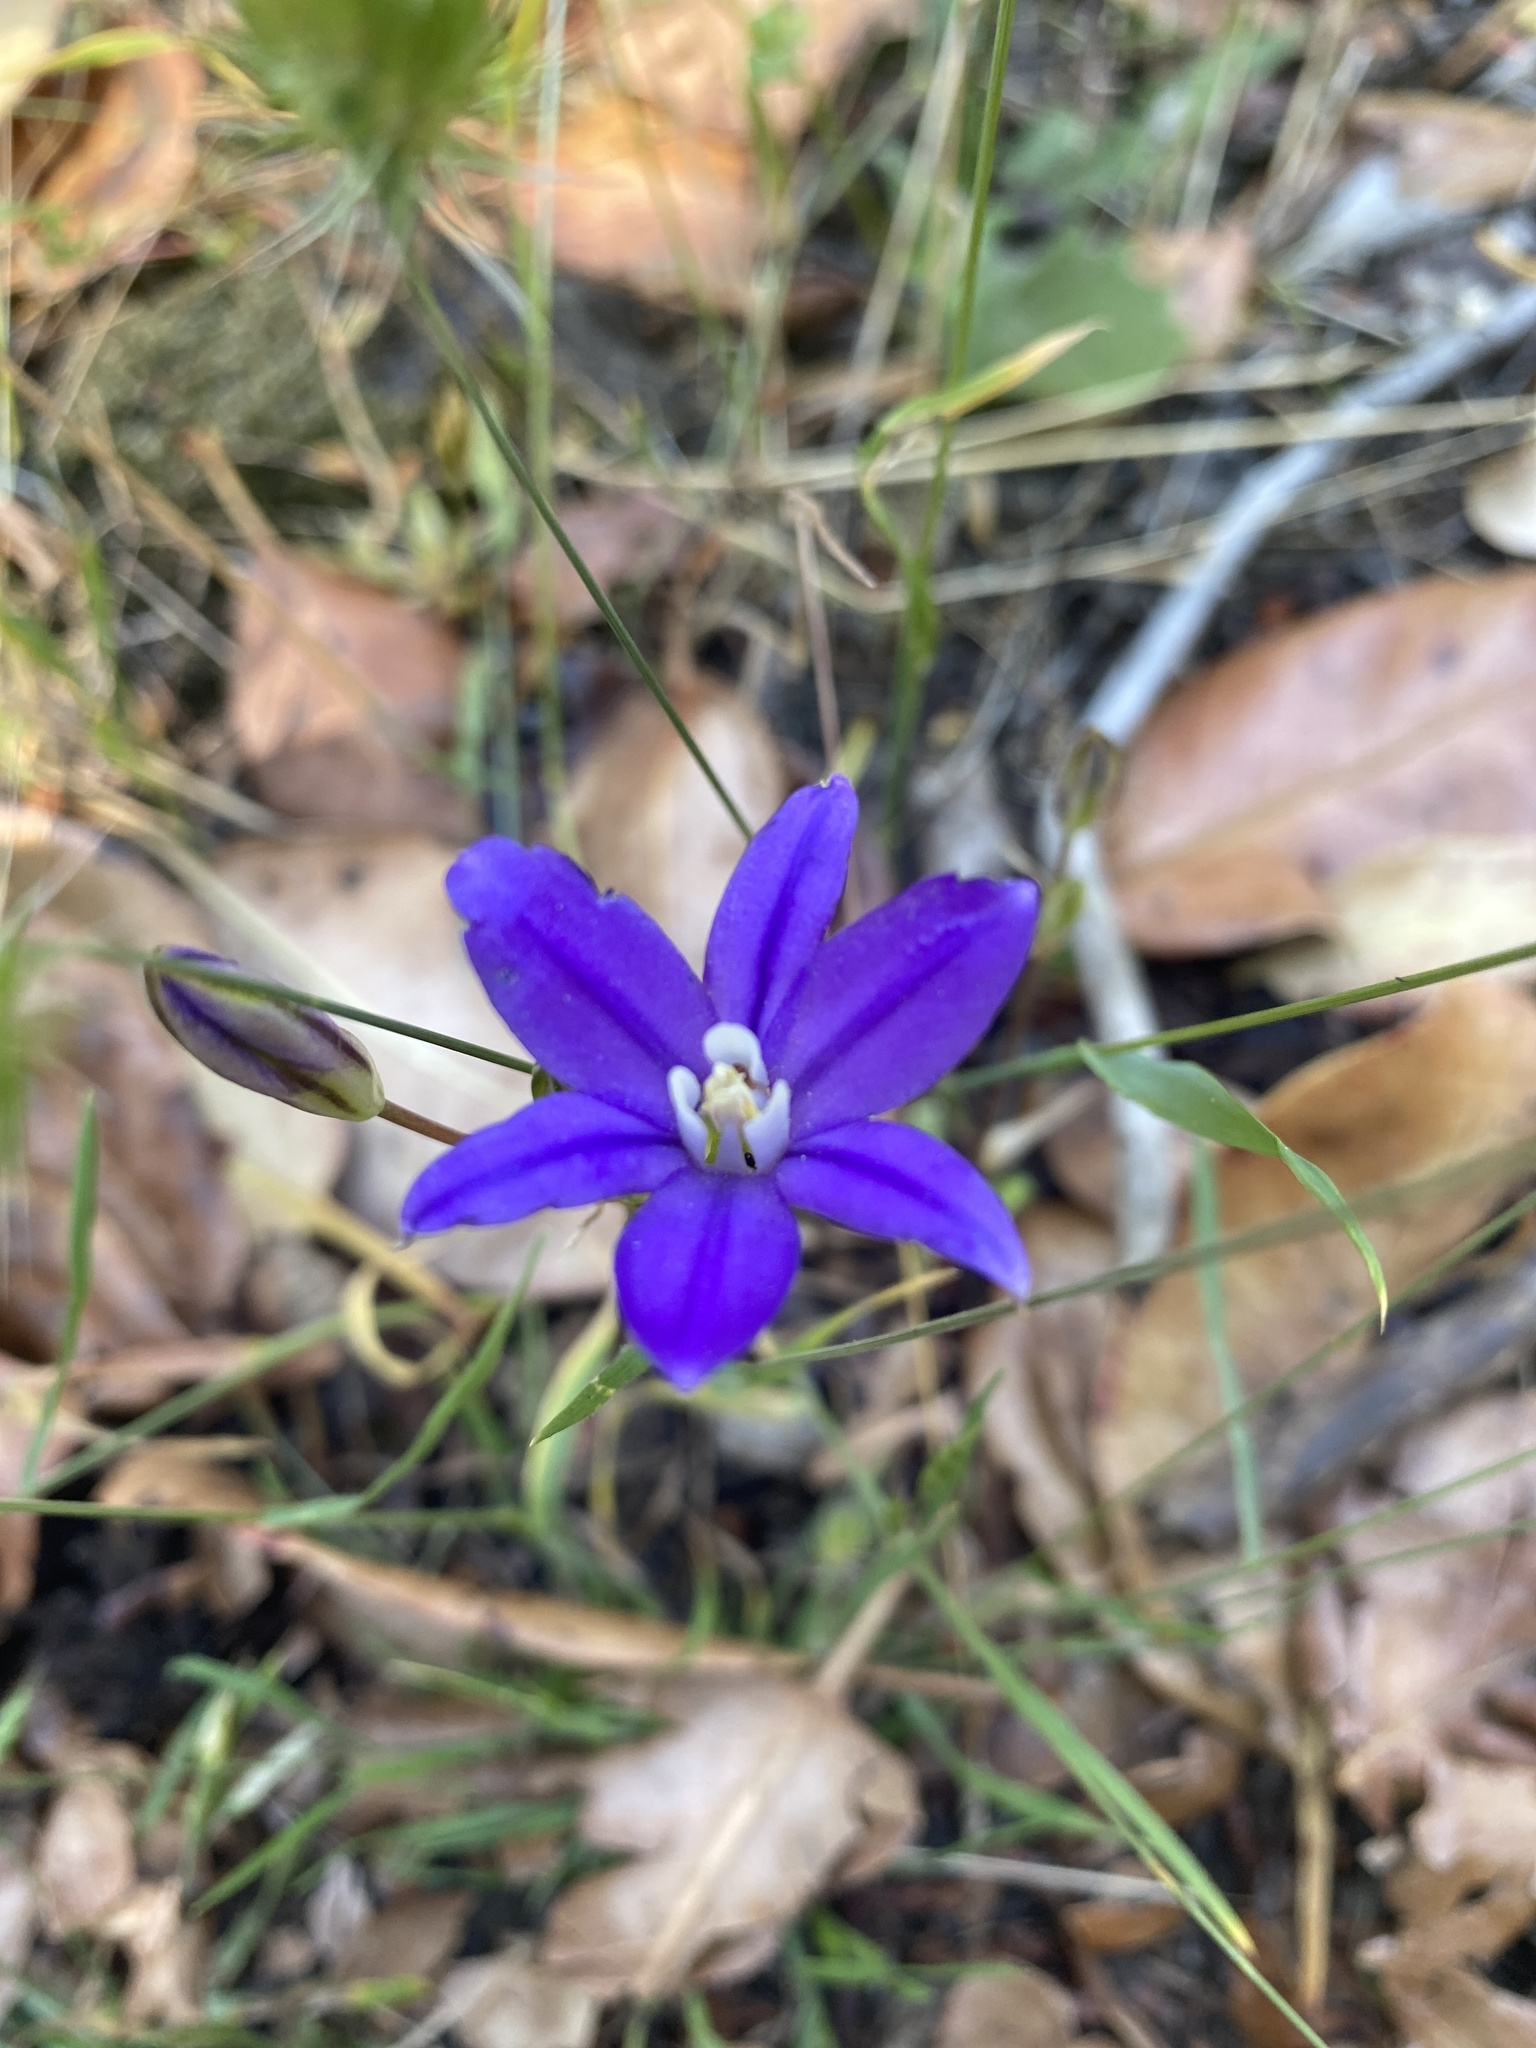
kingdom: Plantae
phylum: Tracheophyta
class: Liliopsida
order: Asparagales
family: Asparagaceae
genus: Brodiaea
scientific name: Brodiaea coronaria
